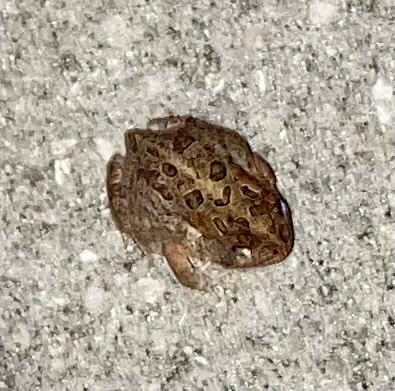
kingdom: Animalia
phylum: Chordata
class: Amphibia
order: Anura
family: Bufonidae
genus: Anaxyrus
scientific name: Anaxyrus terrestris
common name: Southern toad
